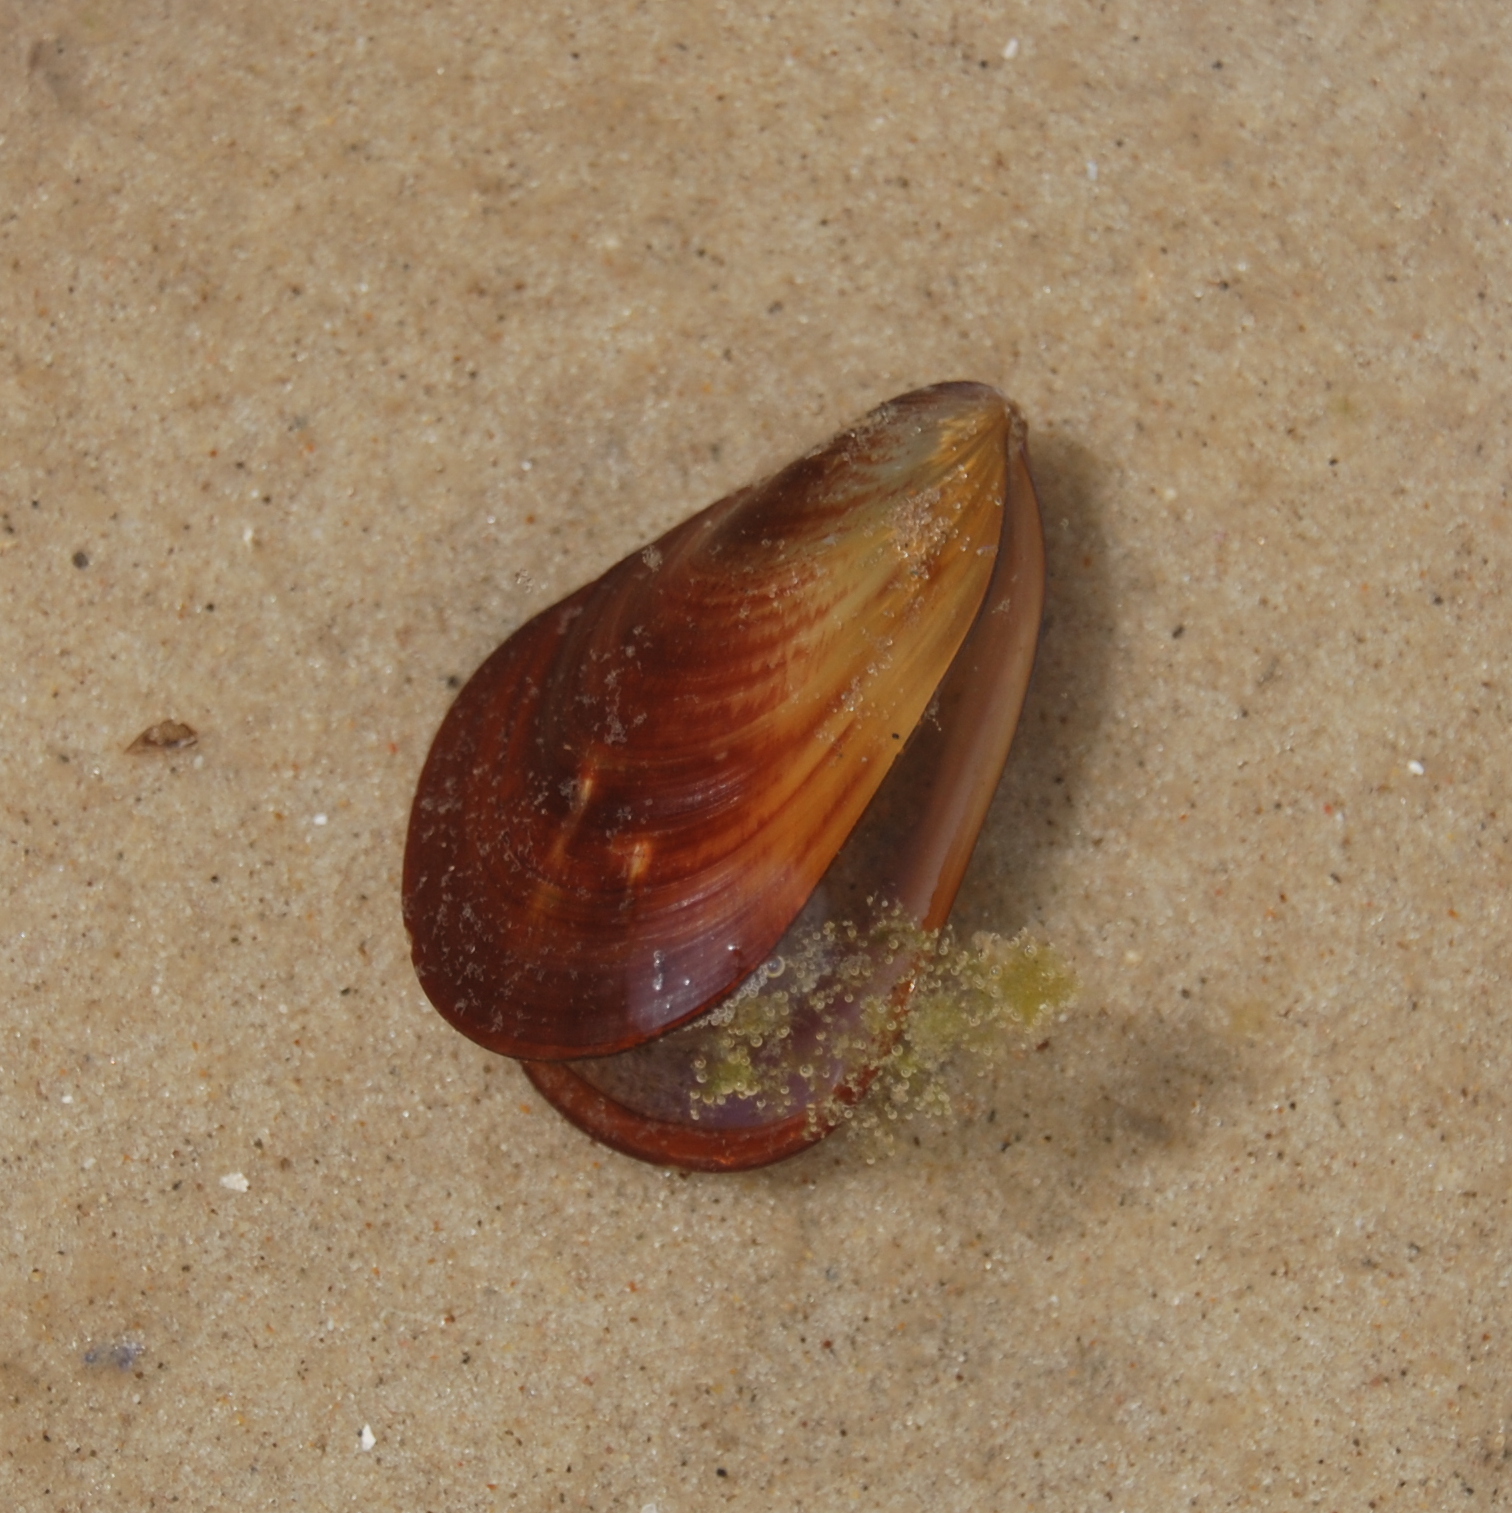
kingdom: Animalia
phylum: Mollusca
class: Bivalvia
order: Mytilida
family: Mytilidae
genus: Perna
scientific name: Perna perna
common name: Mexilhao mussel
